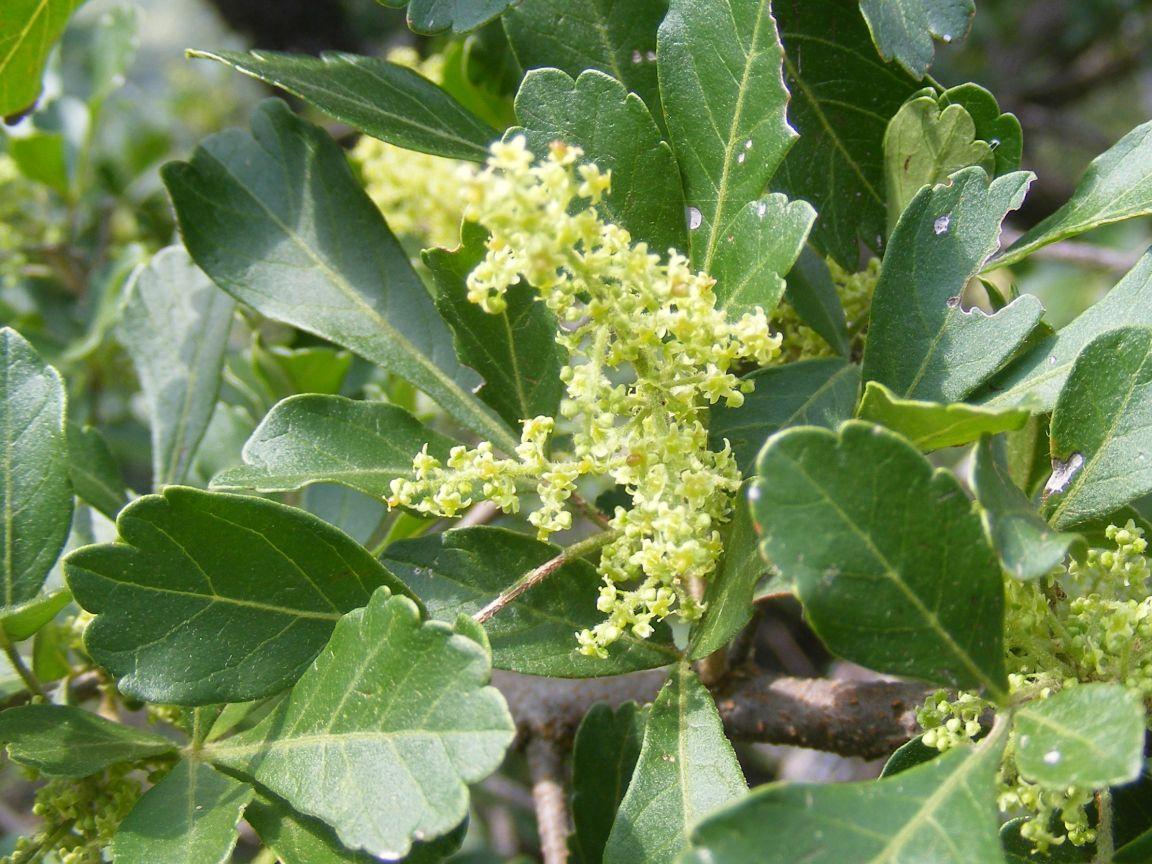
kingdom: Plantae
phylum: Tracheophyta
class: Magnoliopsida
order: Sapindales
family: Anacardiaceae
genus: Searsia
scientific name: Searsia pentheri
